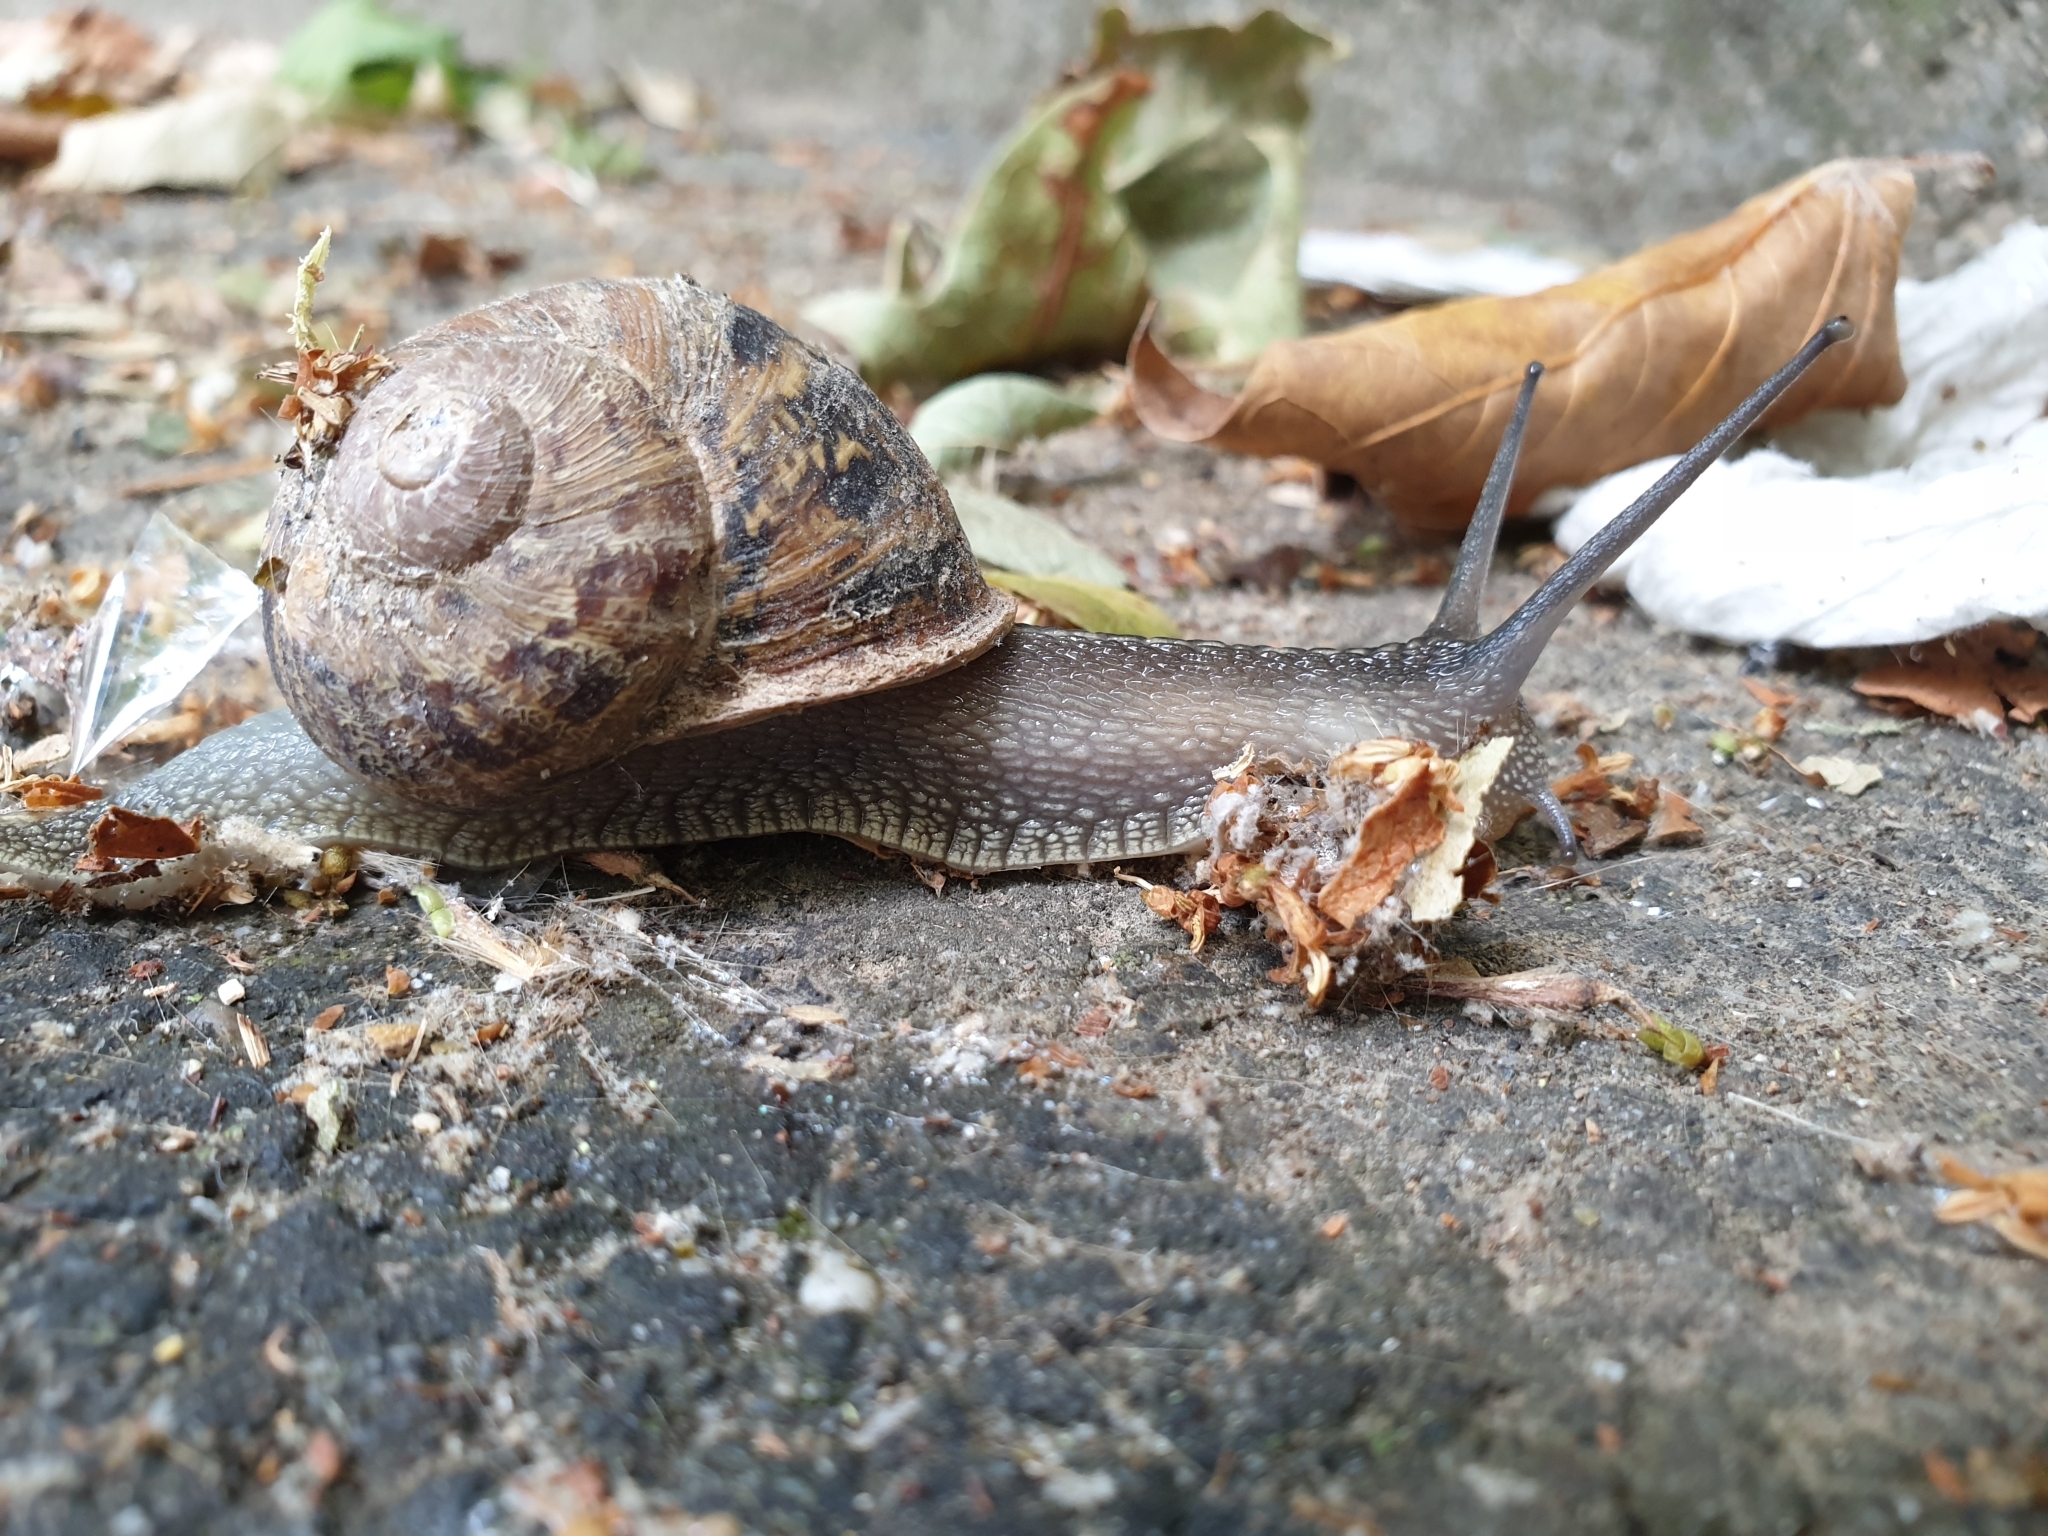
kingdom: Animalia
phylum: Mollusca
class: Gastropoda
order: Stylommatophora
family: Helicidae
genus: Cornu
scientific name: Cornu aspersum
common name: Brown garden snail
